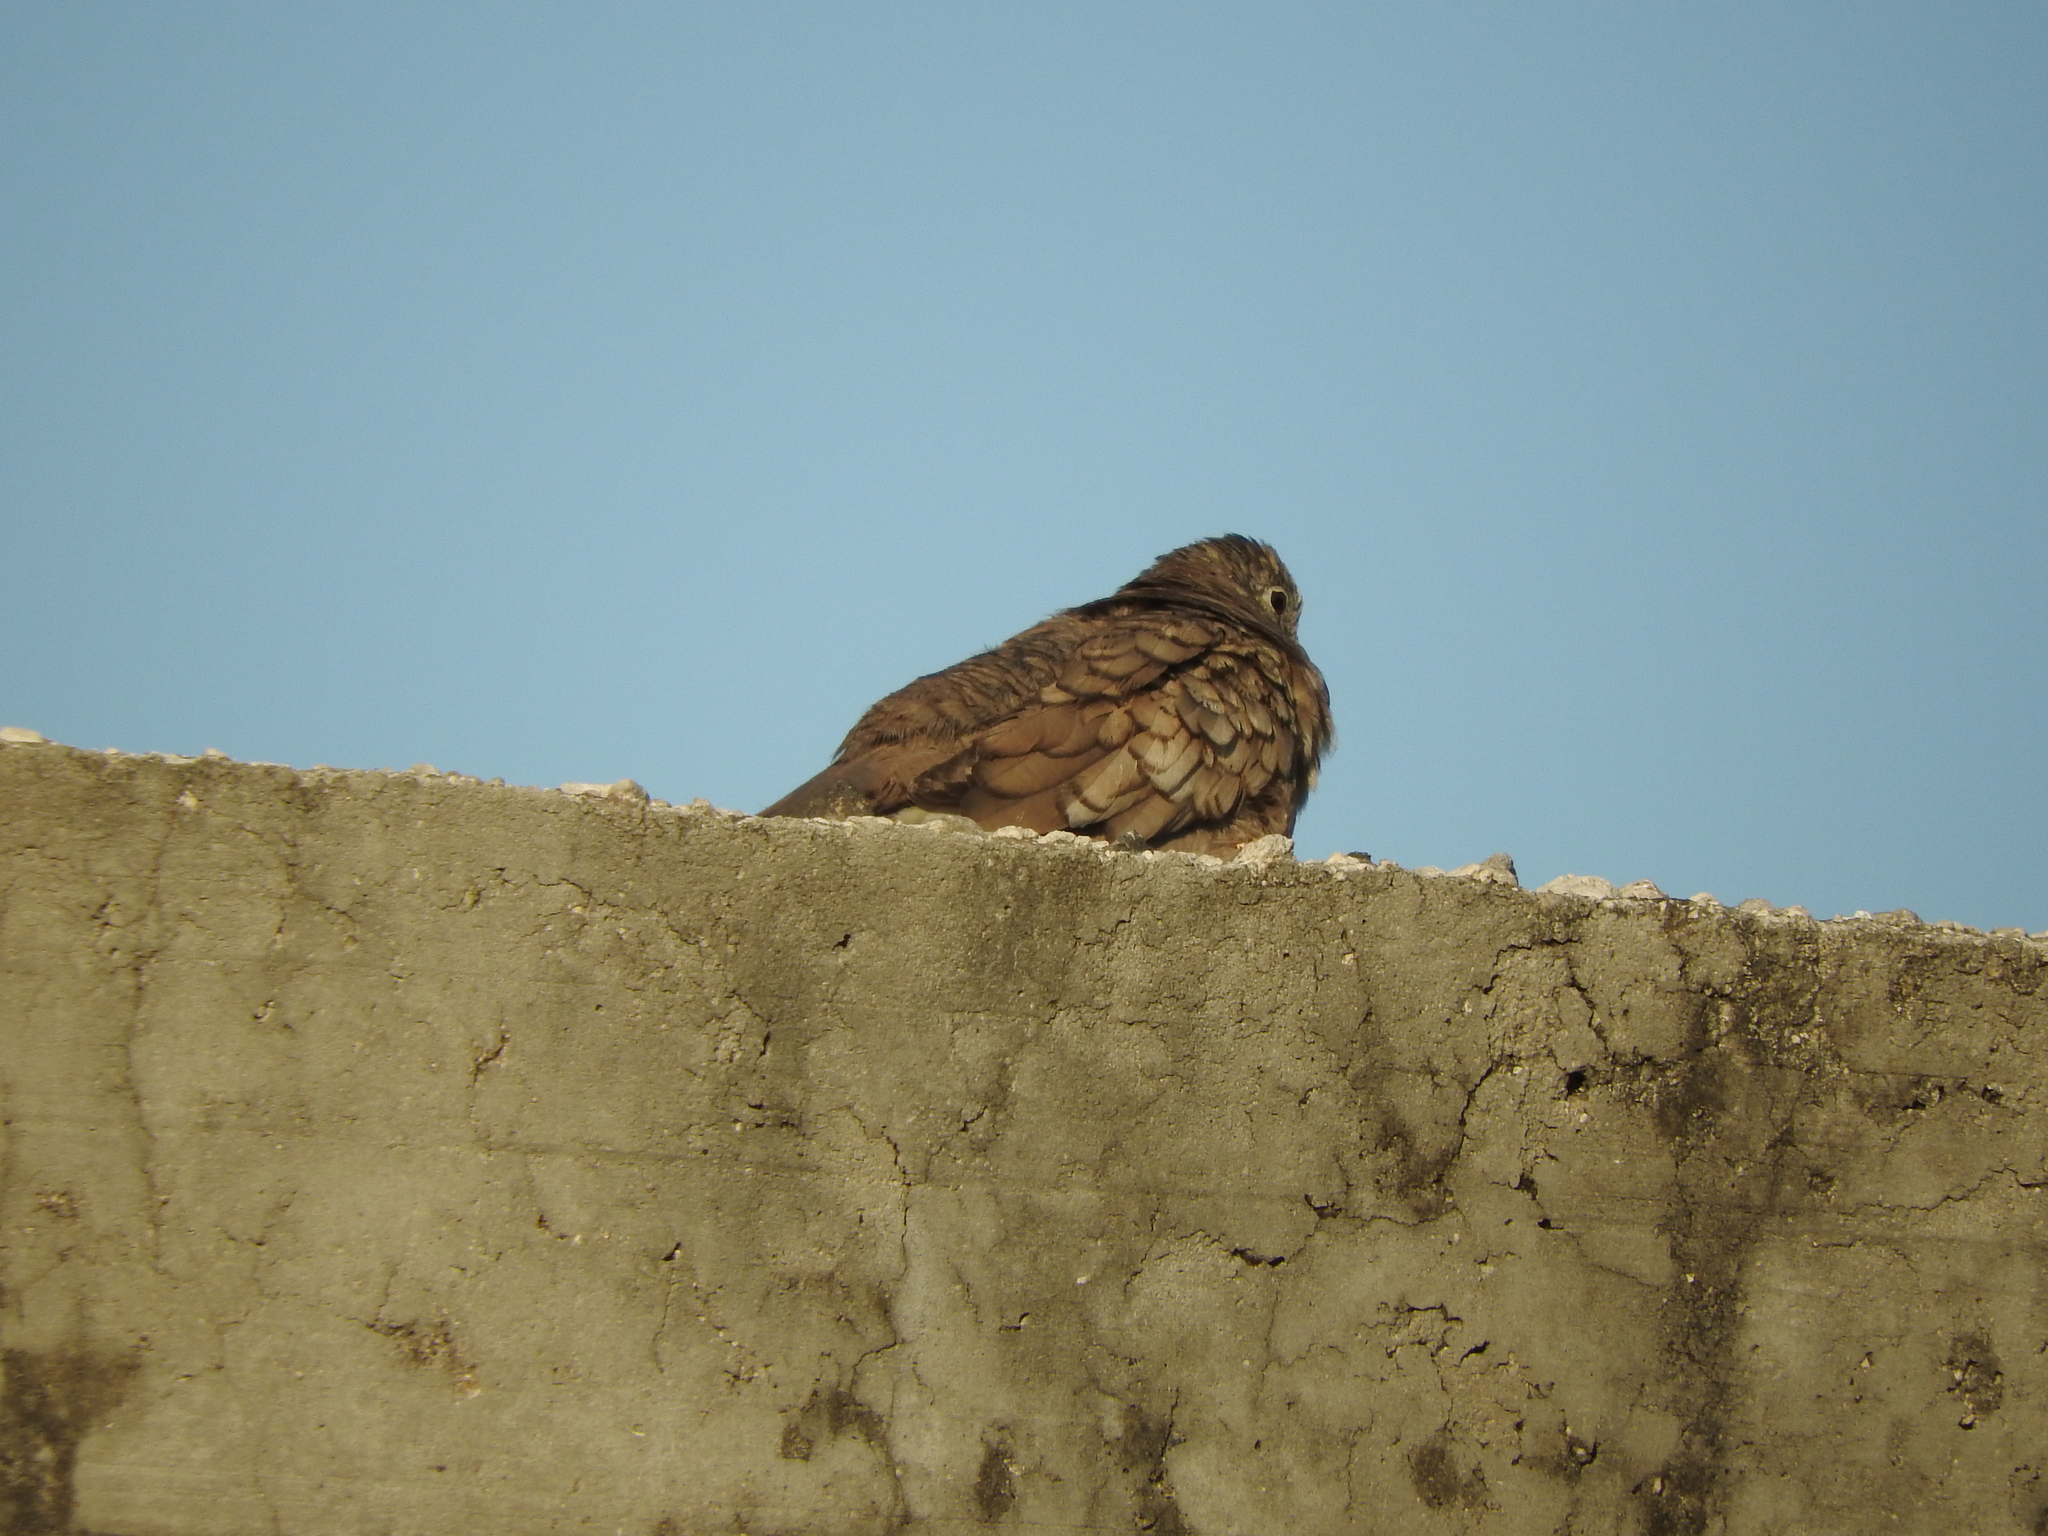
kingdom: Animalia
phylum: Chordata
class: Aves
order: Columbiformes
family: Columbidae
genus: Columbina
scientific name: Columbina inca
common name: Inca dove
